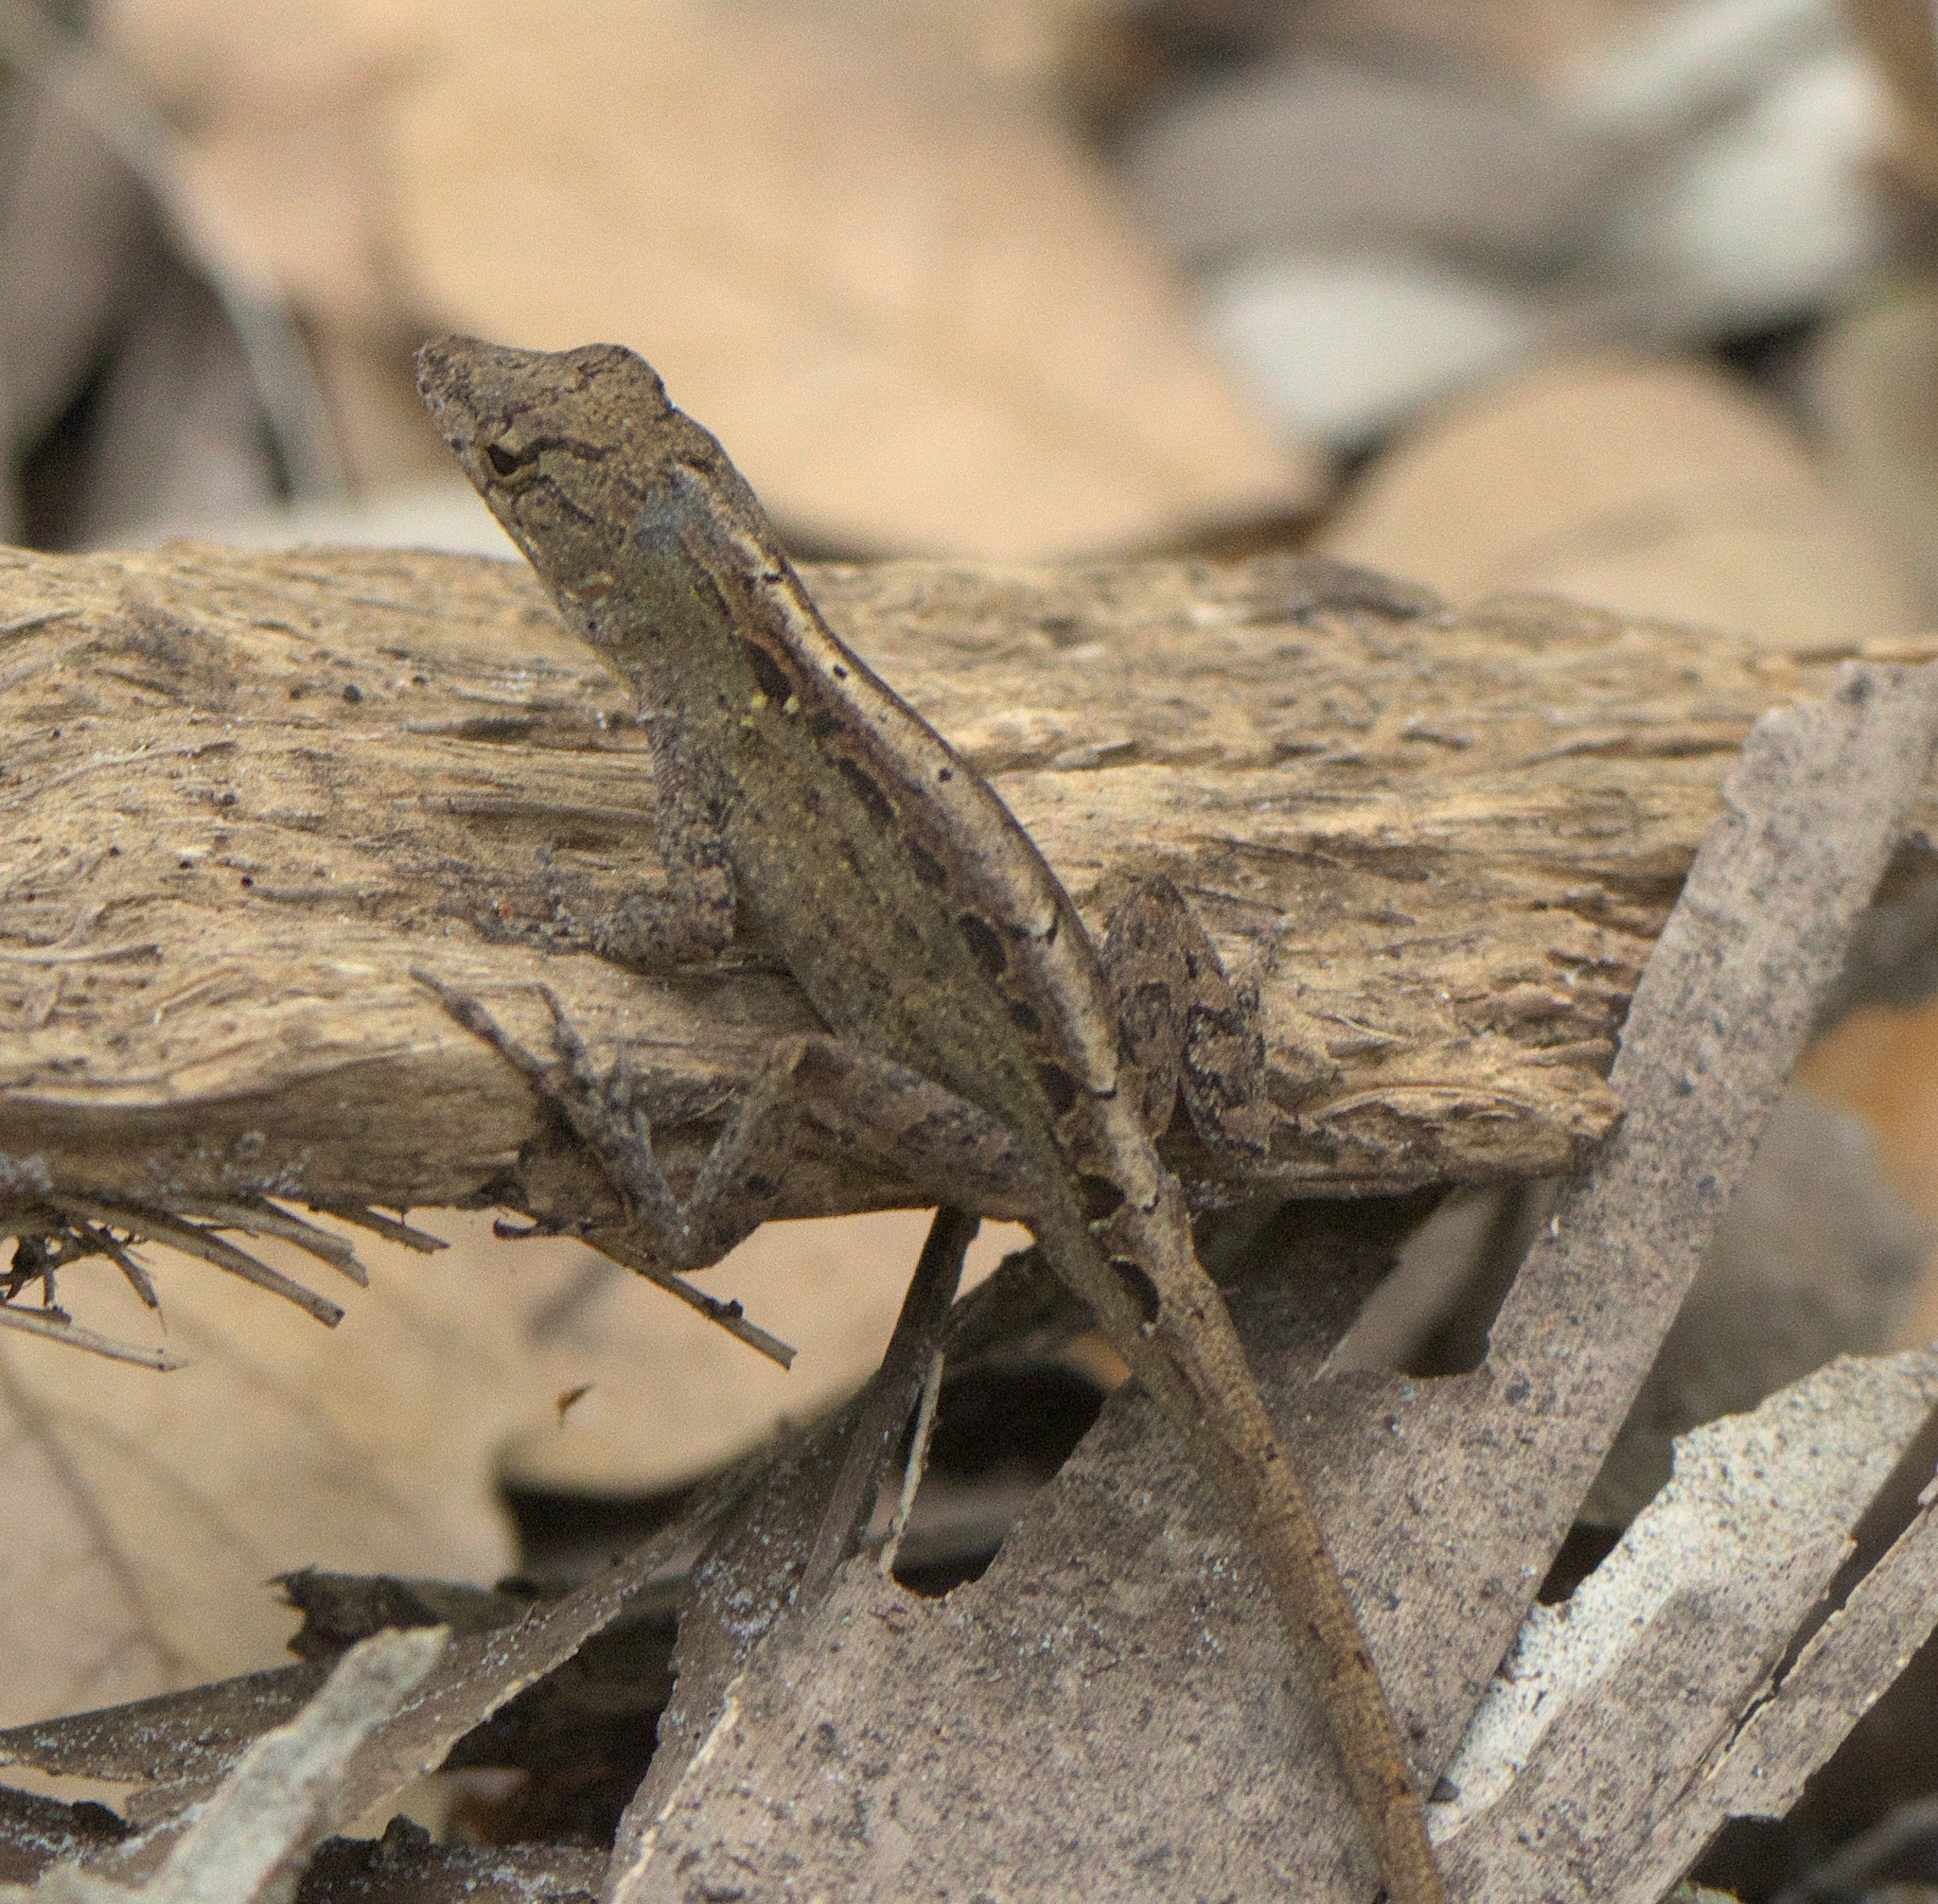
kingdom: Animalia
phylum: Chordata
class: Squamata
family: Dactyloidae
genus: Anolis
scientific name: Anolis sagrei
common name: Brown anole
